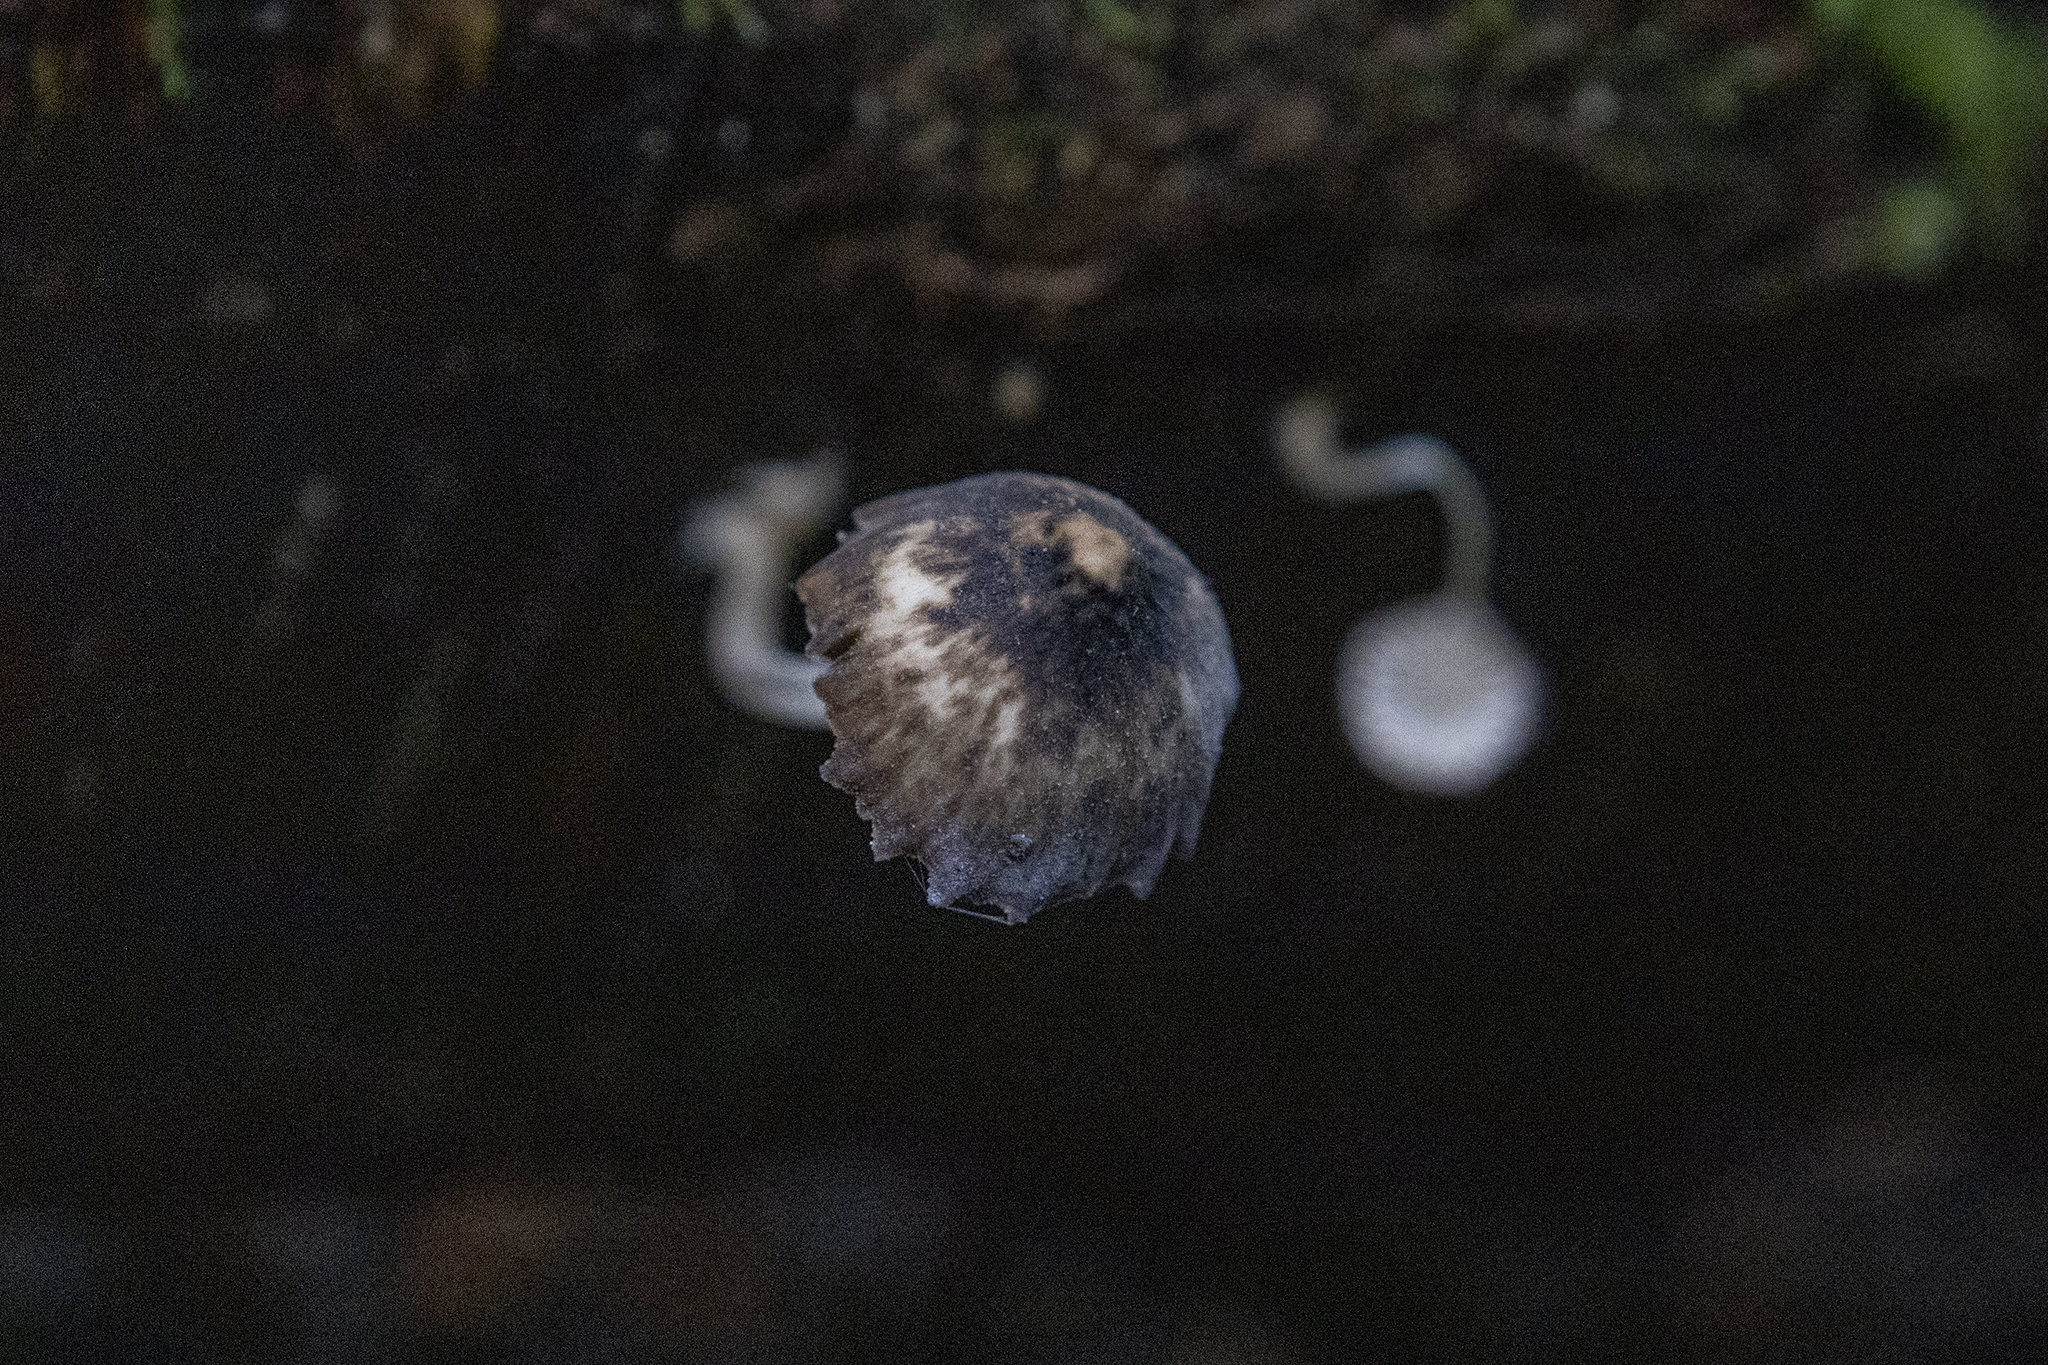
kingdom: Fungi
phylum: Basidiomycota
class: Agaricomycetes
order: Agaricales
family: Porotheleaceae
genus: Pseudohydropus
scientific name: Pseudohydropus parafunebris
